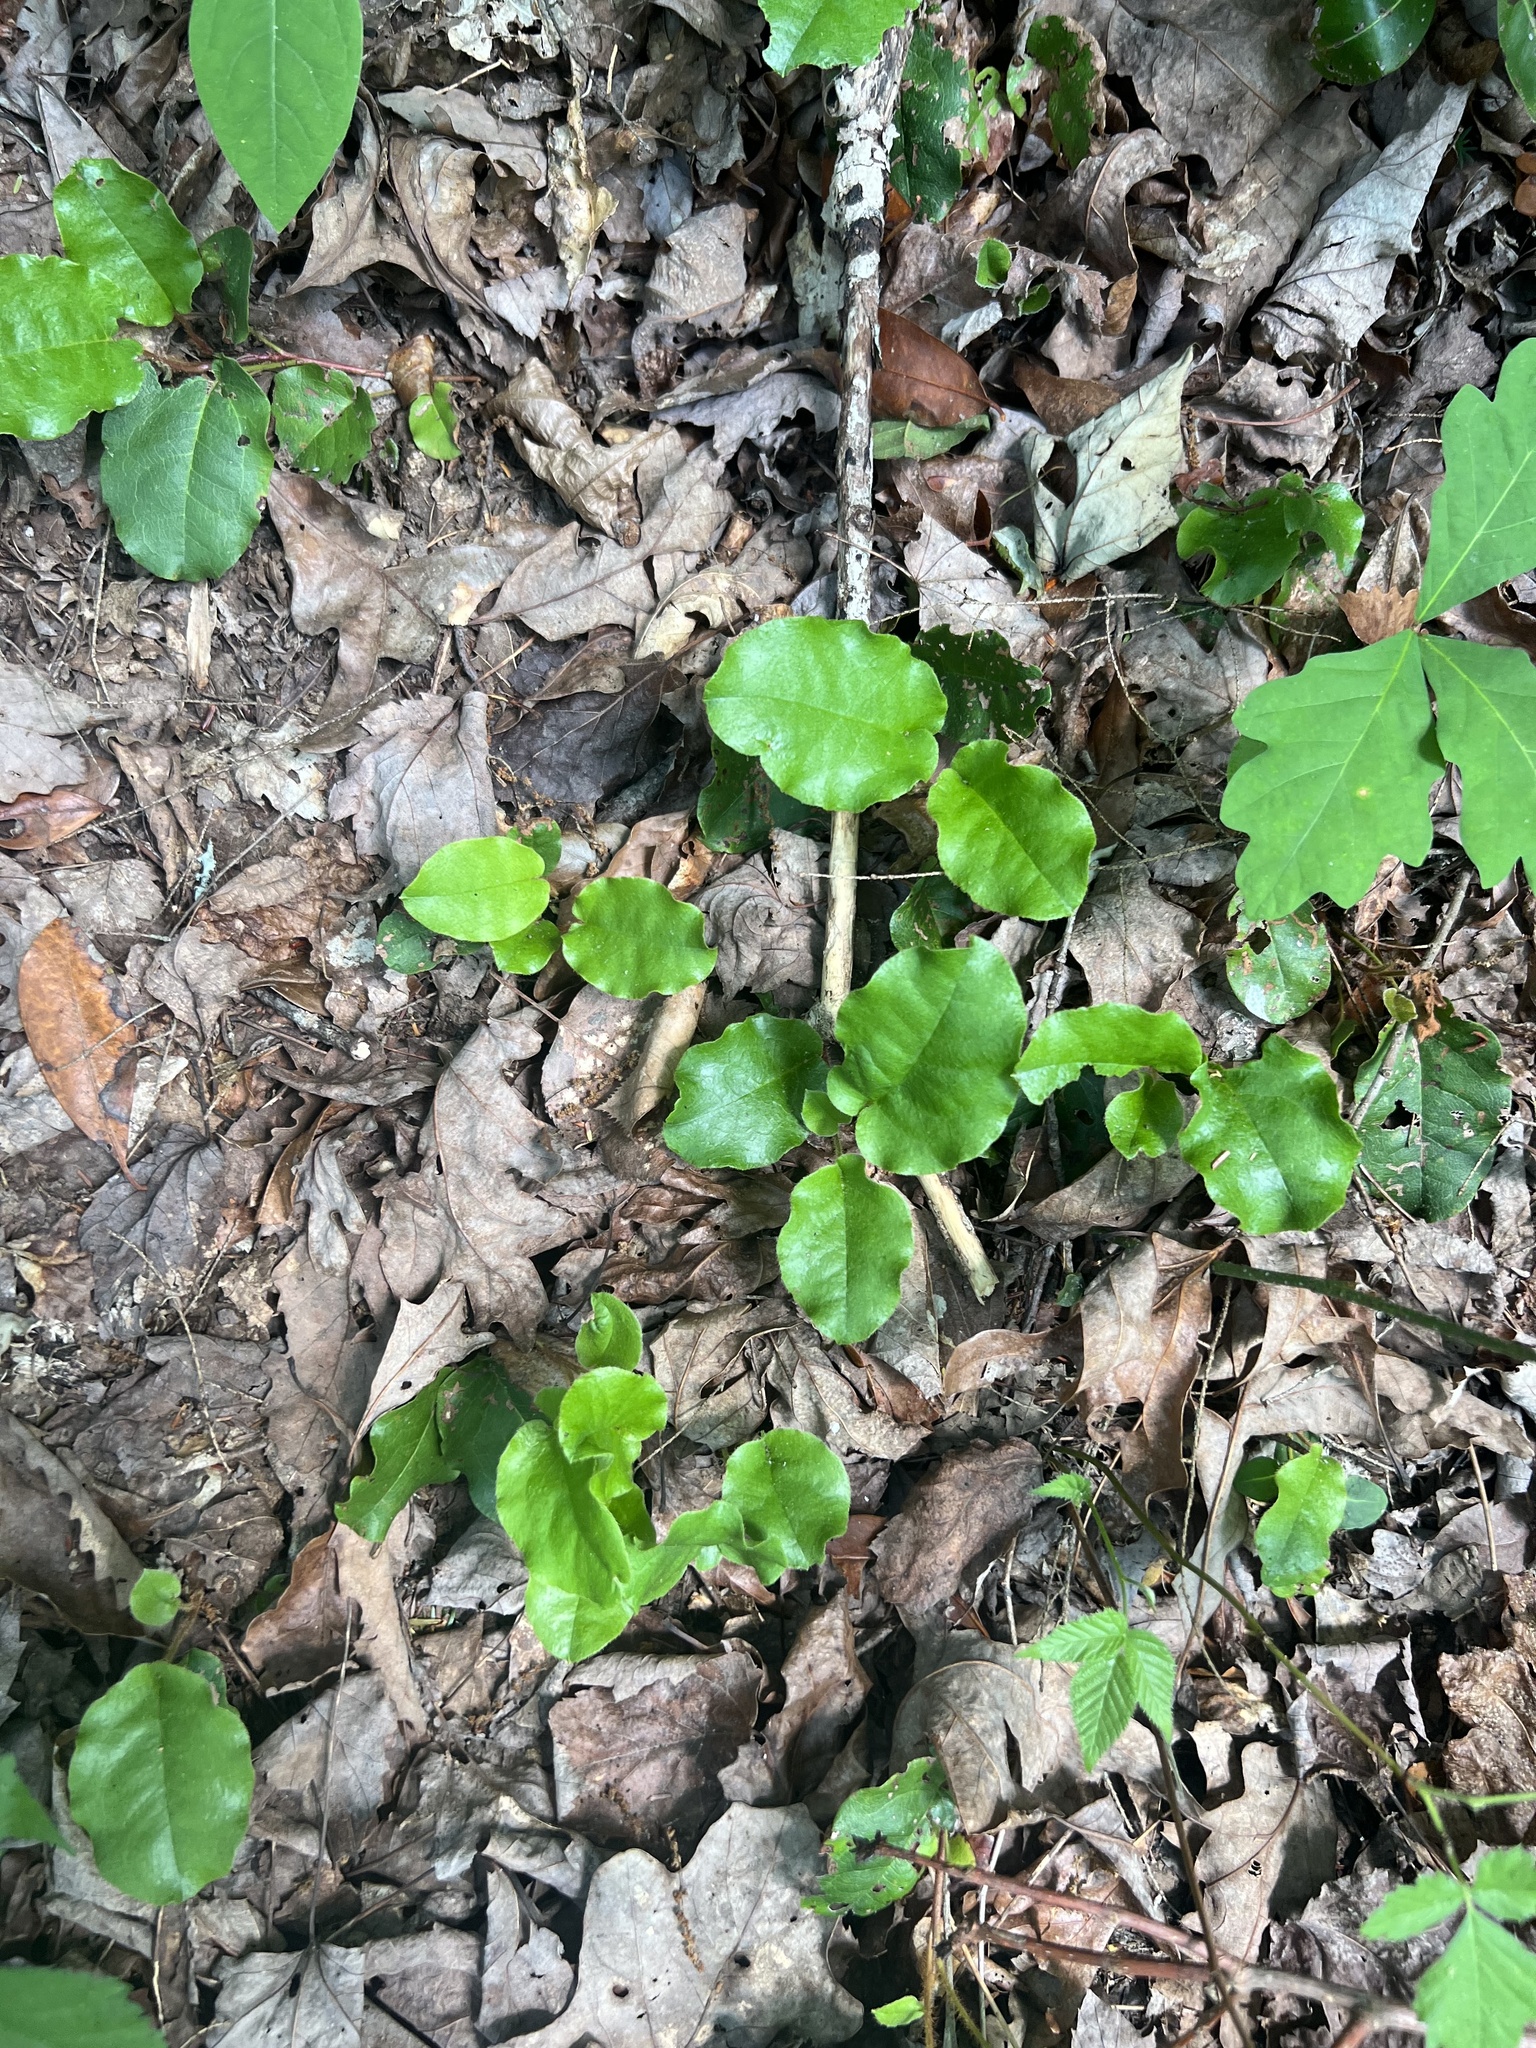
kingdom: Plantae
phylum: Tracheophyta
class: Magnoliopsida
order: Ericales
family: Ericaceae
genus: Epigaea
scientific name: Epigaea repens
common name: Gravelroot
